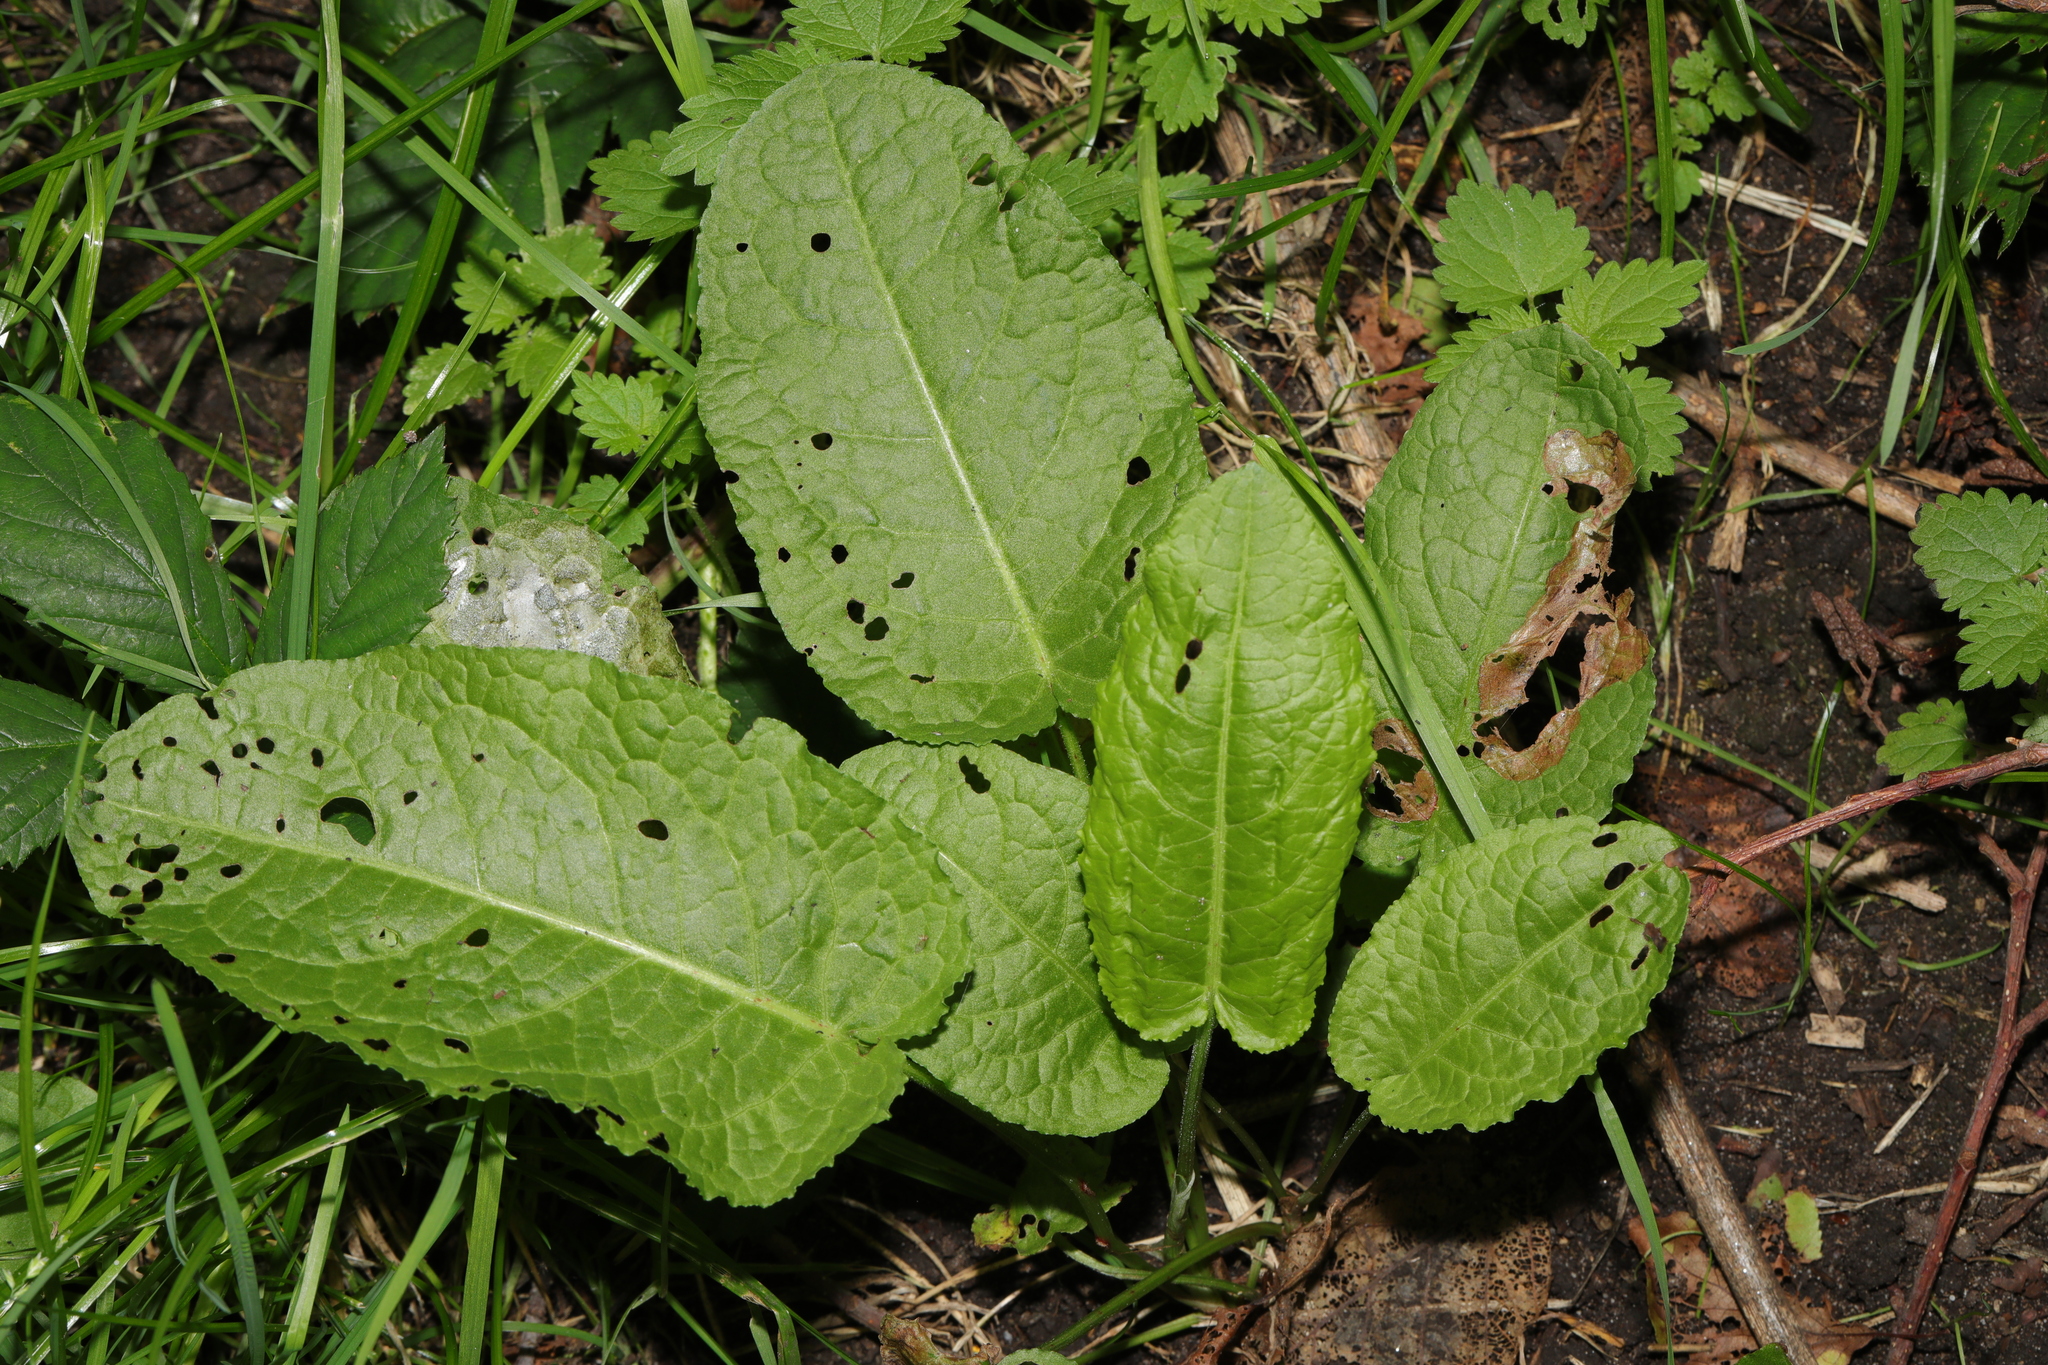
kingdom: Plantae
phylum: Tracheophyta
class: Magnoliopsida
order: Caryophyllales
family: Polygonaceae
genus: Rumex
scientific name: Rumex obtusifolius
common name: Bitter dock
